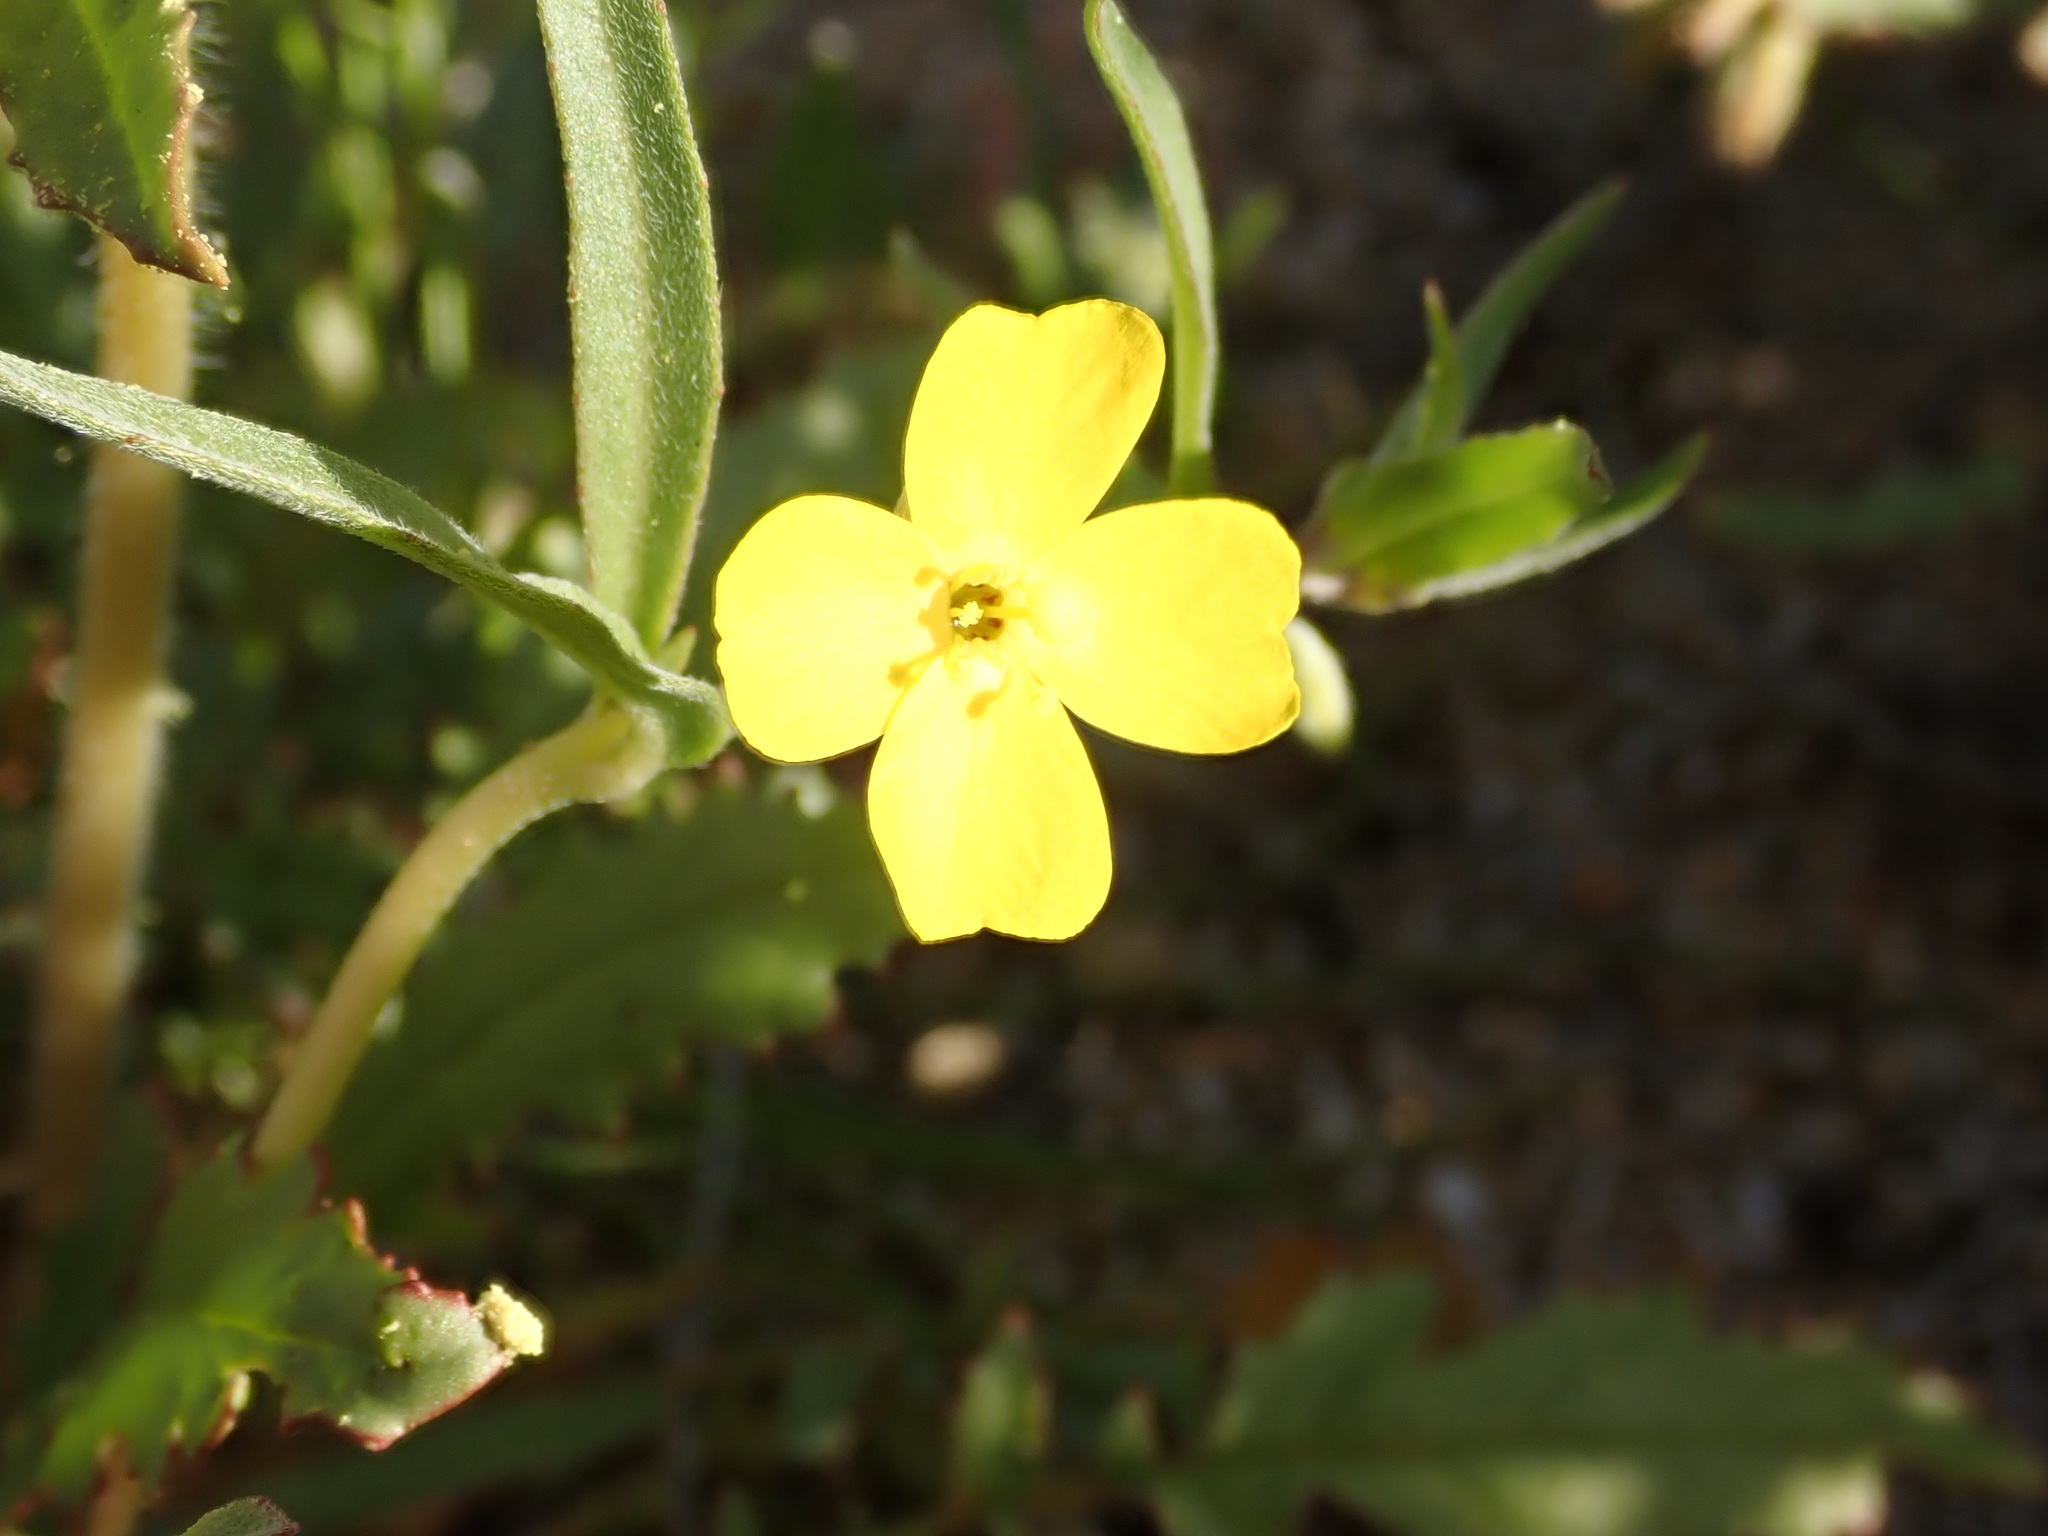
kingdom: Plantae
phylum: Tracheophyta
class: Magnoliopsida
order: Myrtales
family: Onagraceae
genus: Camissoniopsis
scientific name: Camissoniopsis pallida
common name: Paleyellow suncup
